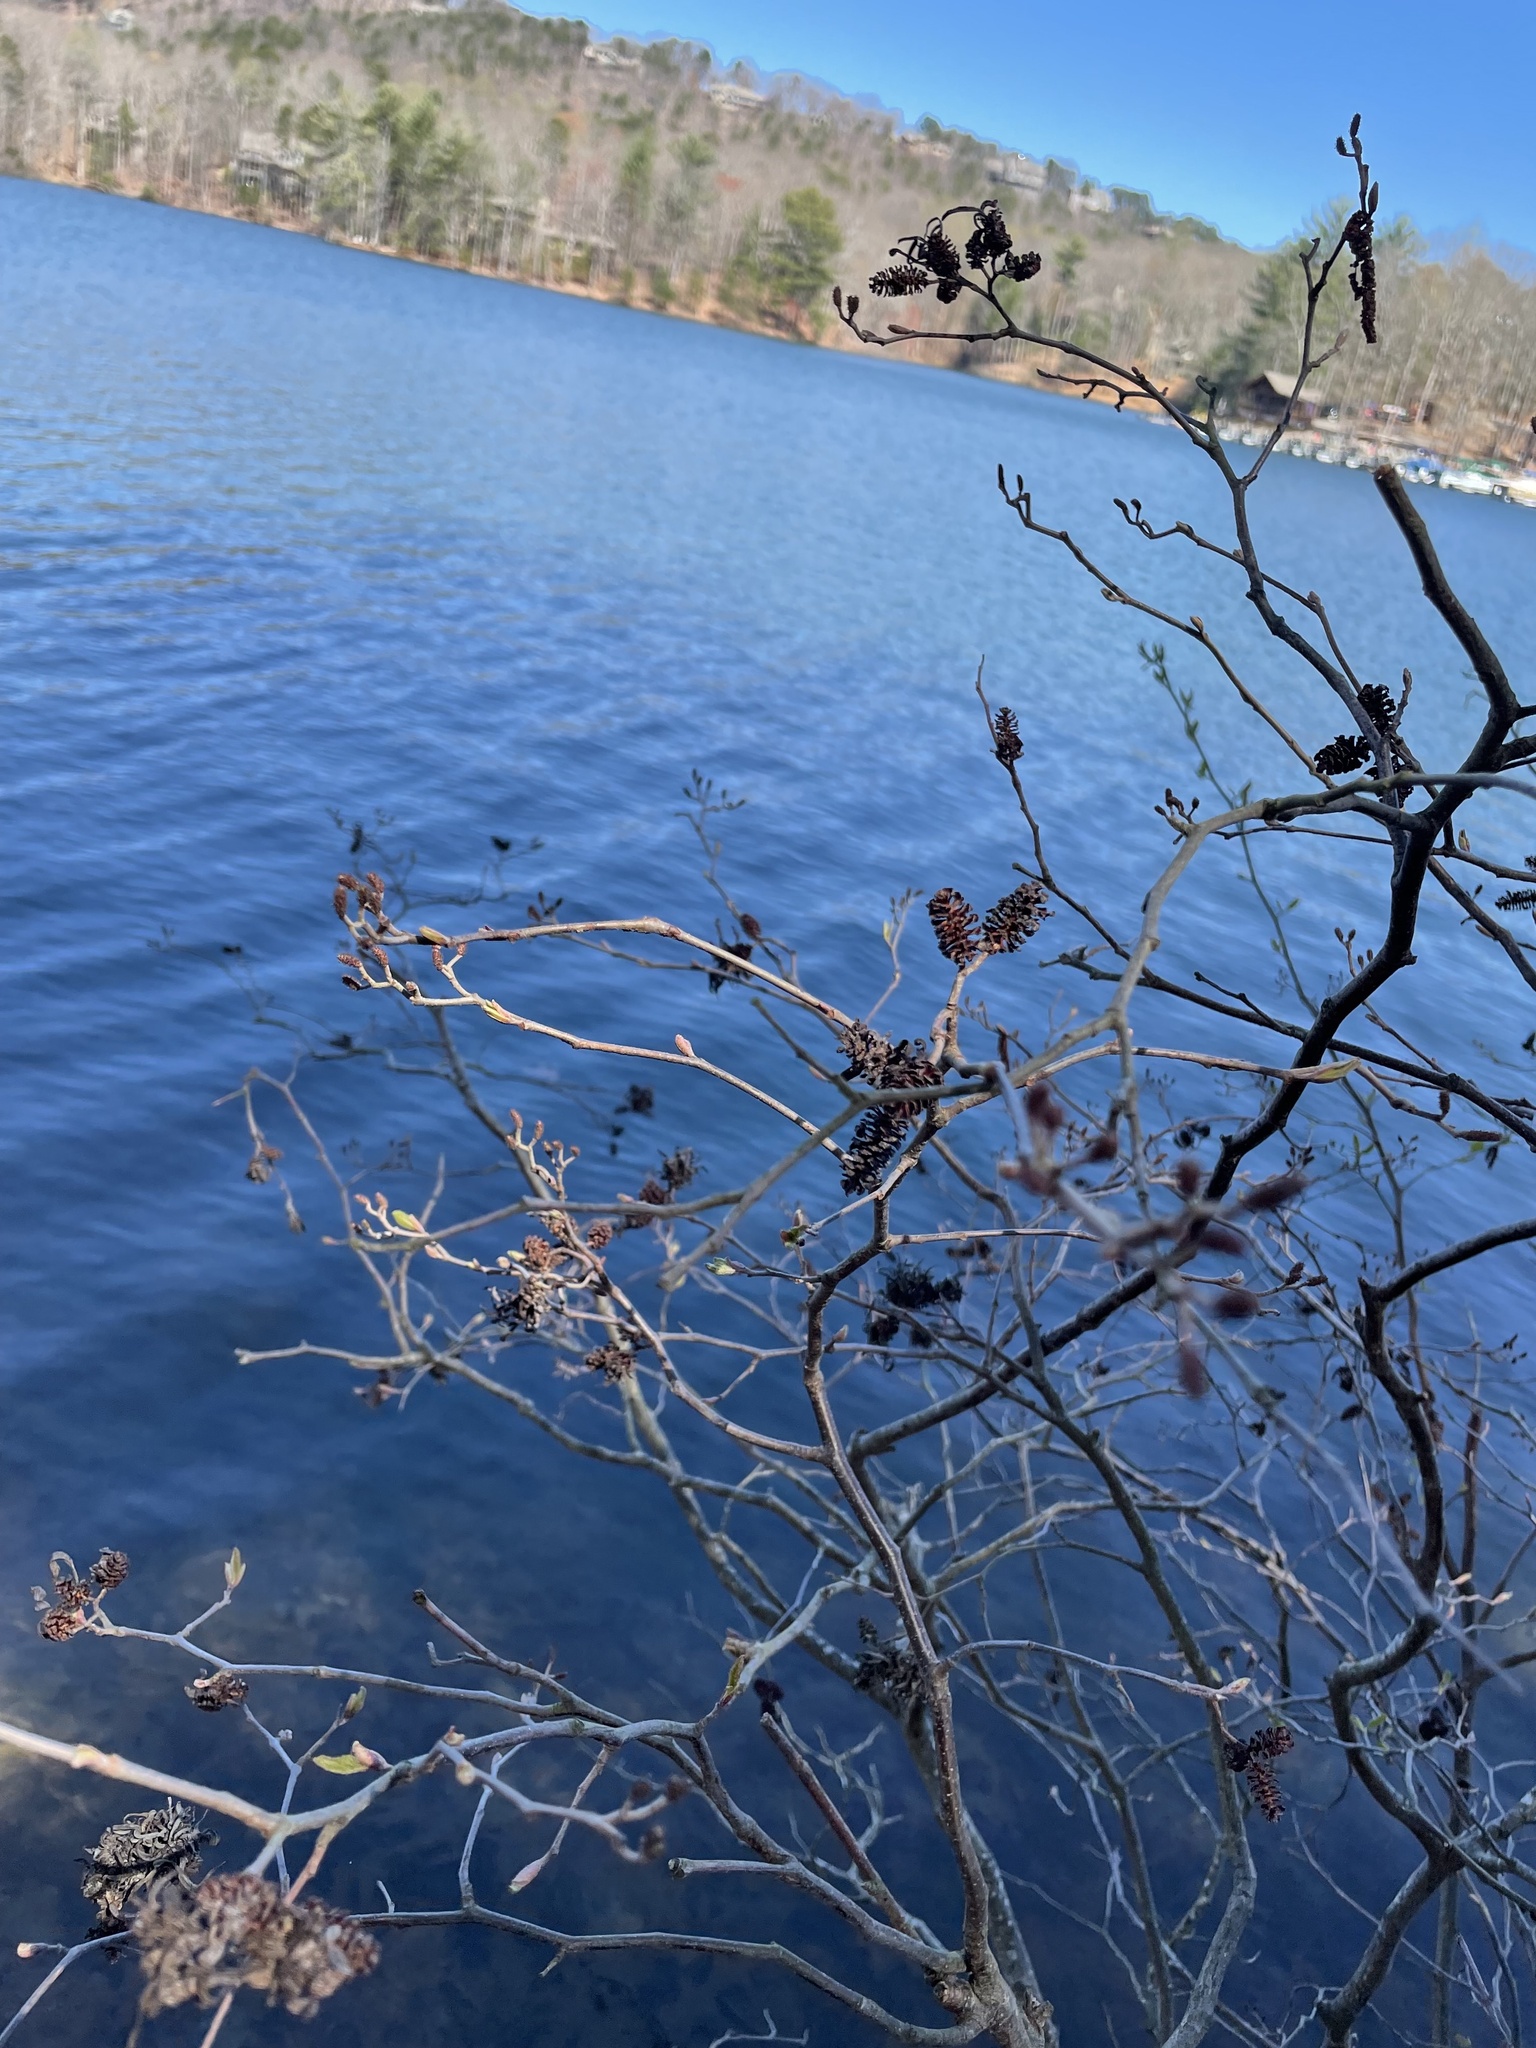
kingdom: Plantae
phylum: Tracheophyta
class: Magnoliopsida
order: Fagales
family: Betulaceae
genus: Alnus
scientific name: Alnus serrulata
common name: Hazel alder
